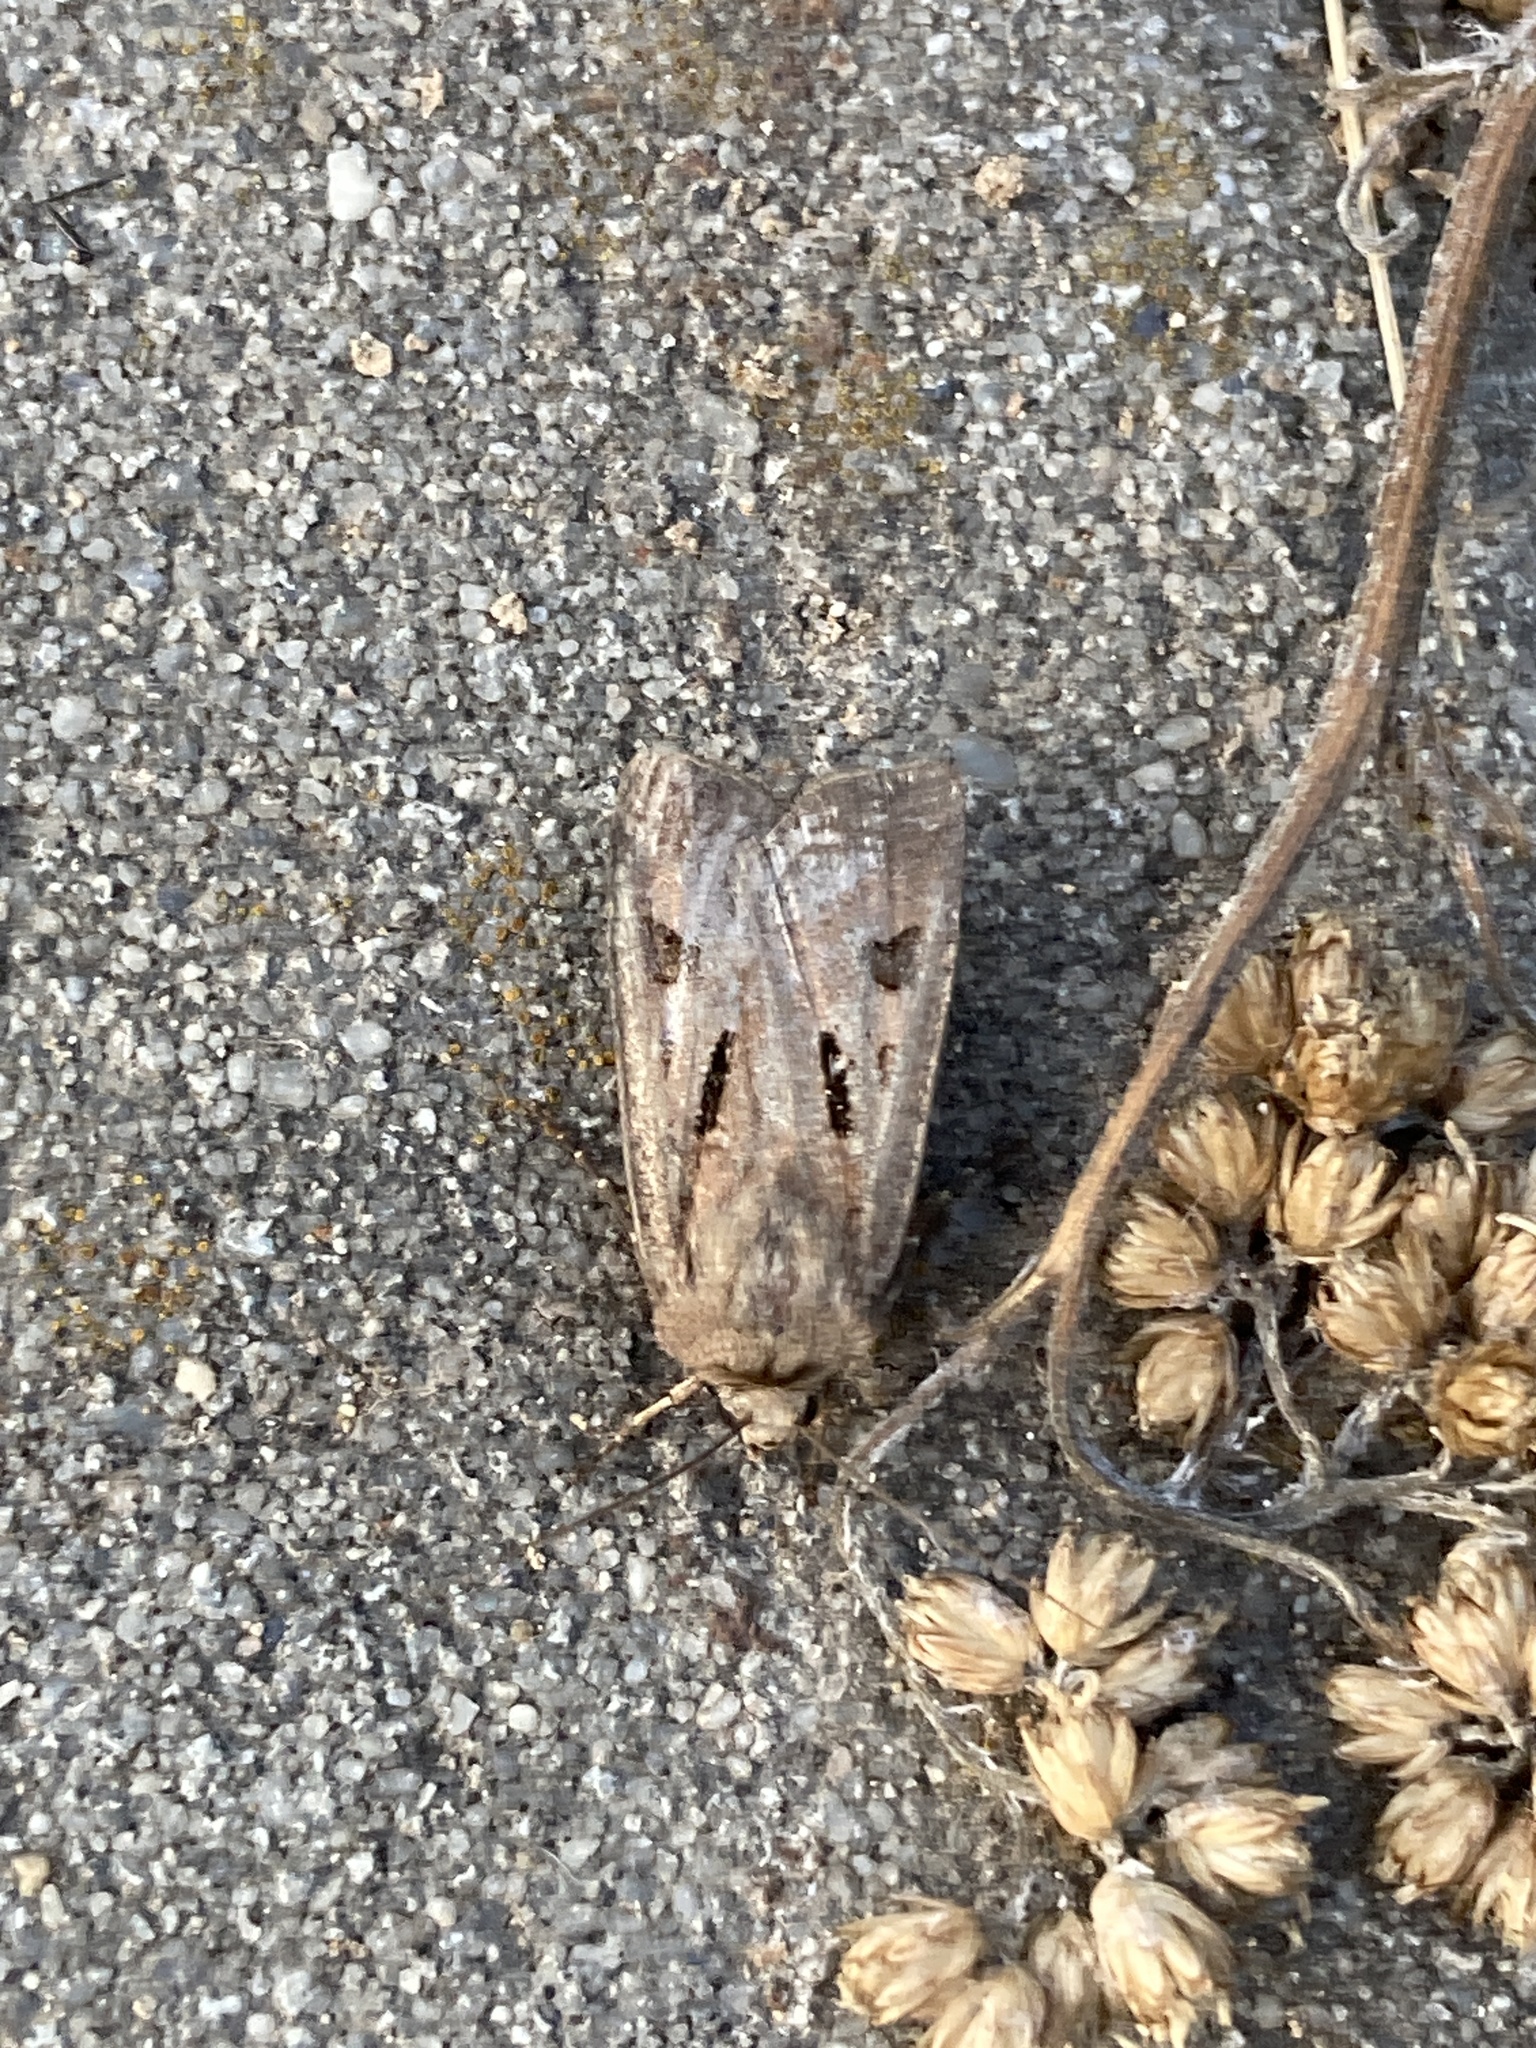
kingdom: Animalia
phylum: Arthropoda
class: Insecta
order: Lepidoptera
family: Noctuidae
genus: Agrotis
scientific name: Agrotis exclamationis
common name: Heart and dart
